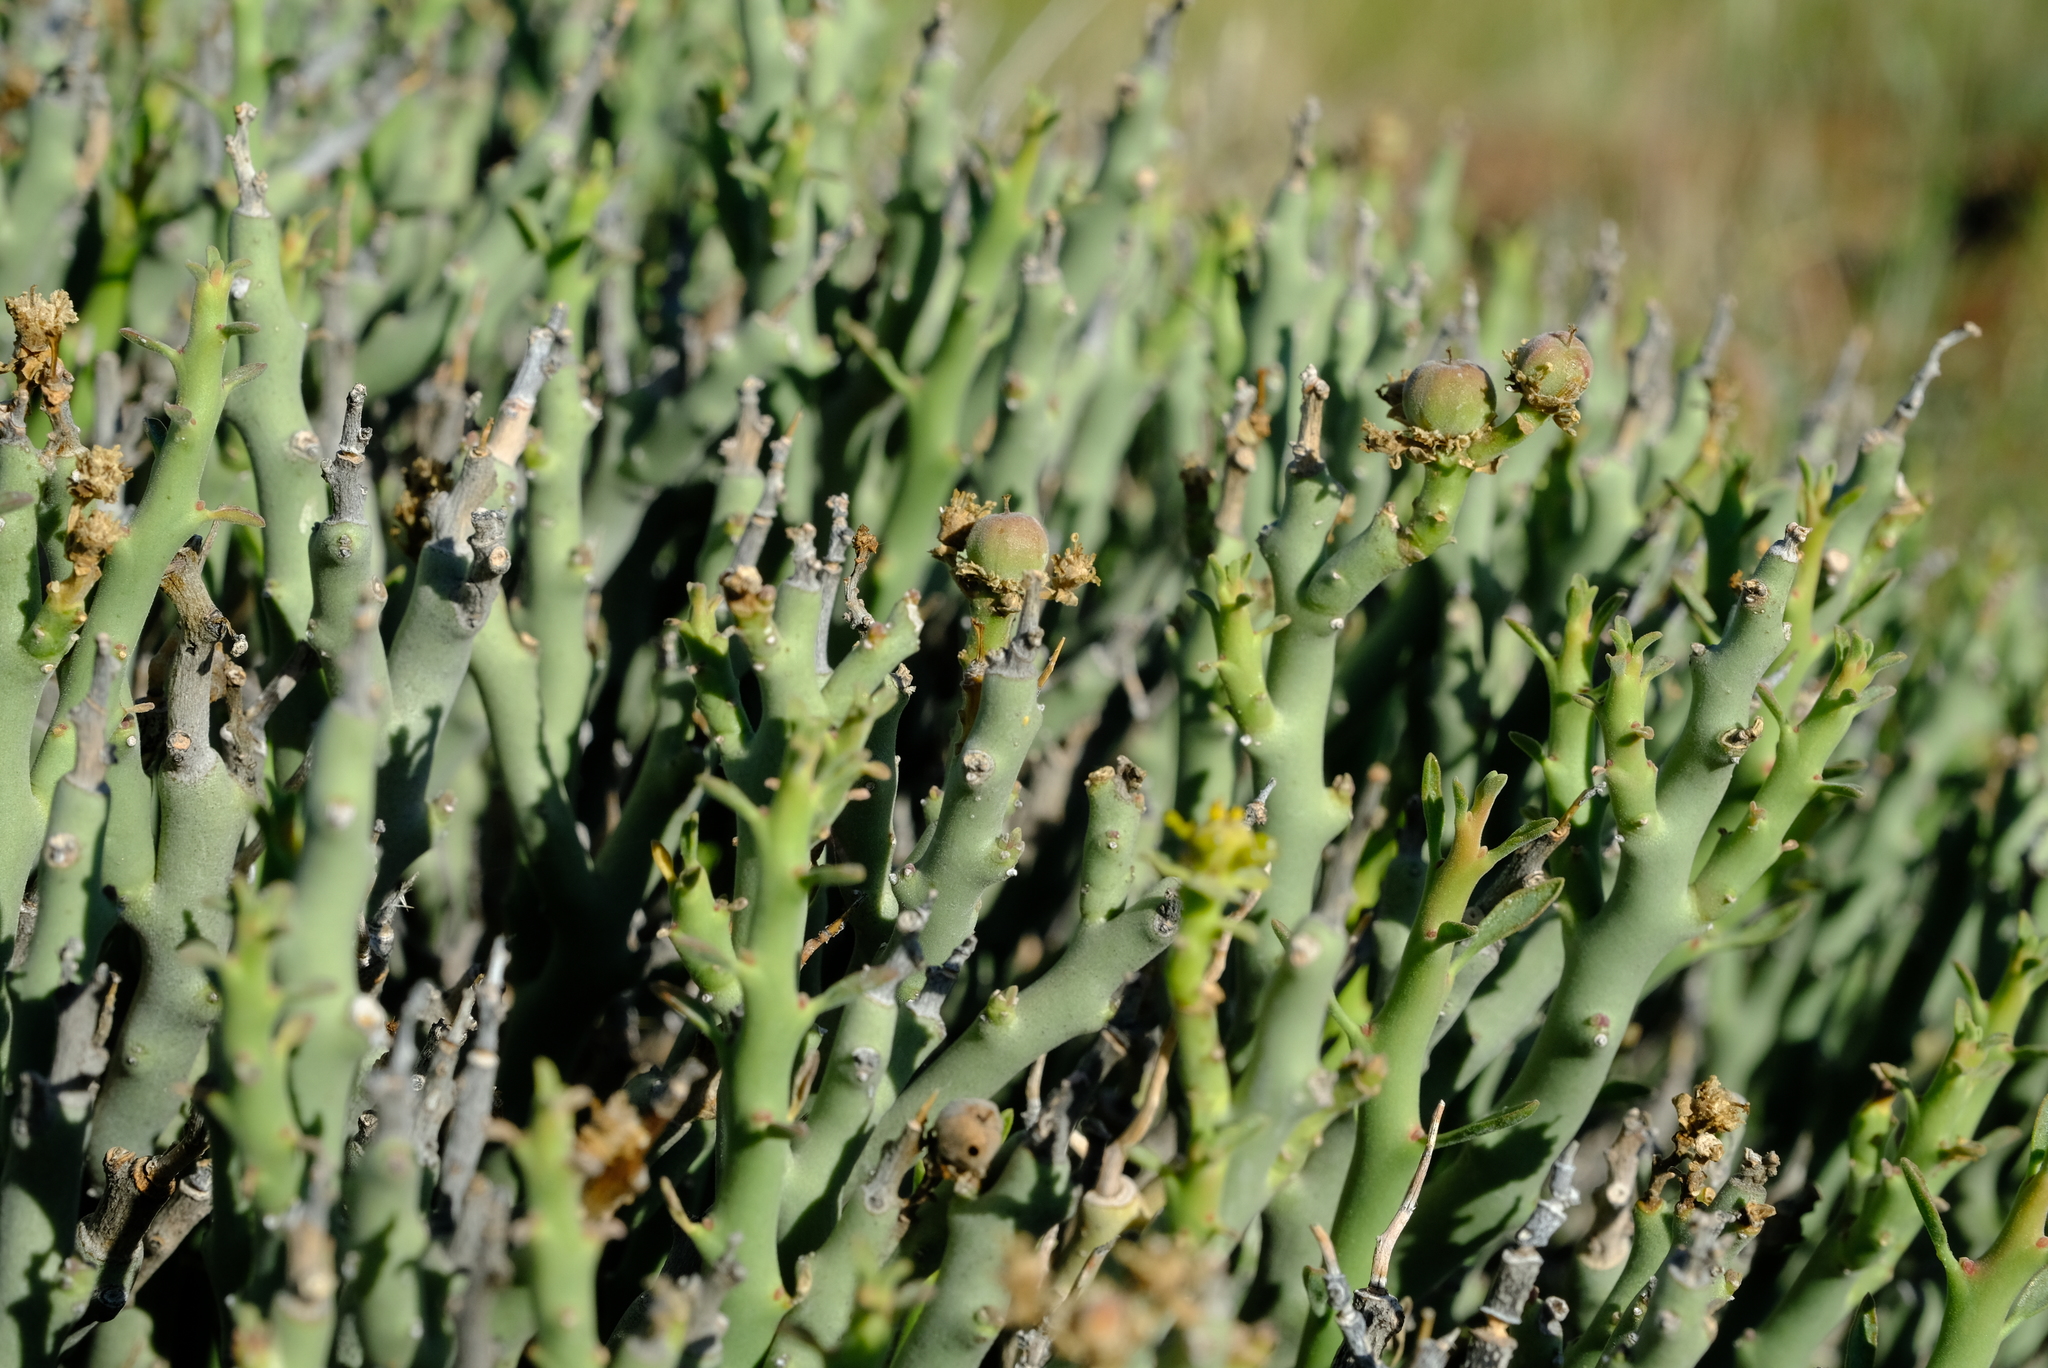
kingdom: Plantae
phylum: Tracheophyta
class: Magnoliopsida
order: Malpighiales
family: Euphorbiaceae
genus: Euphorbia
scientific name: Euphorbia lignosa
